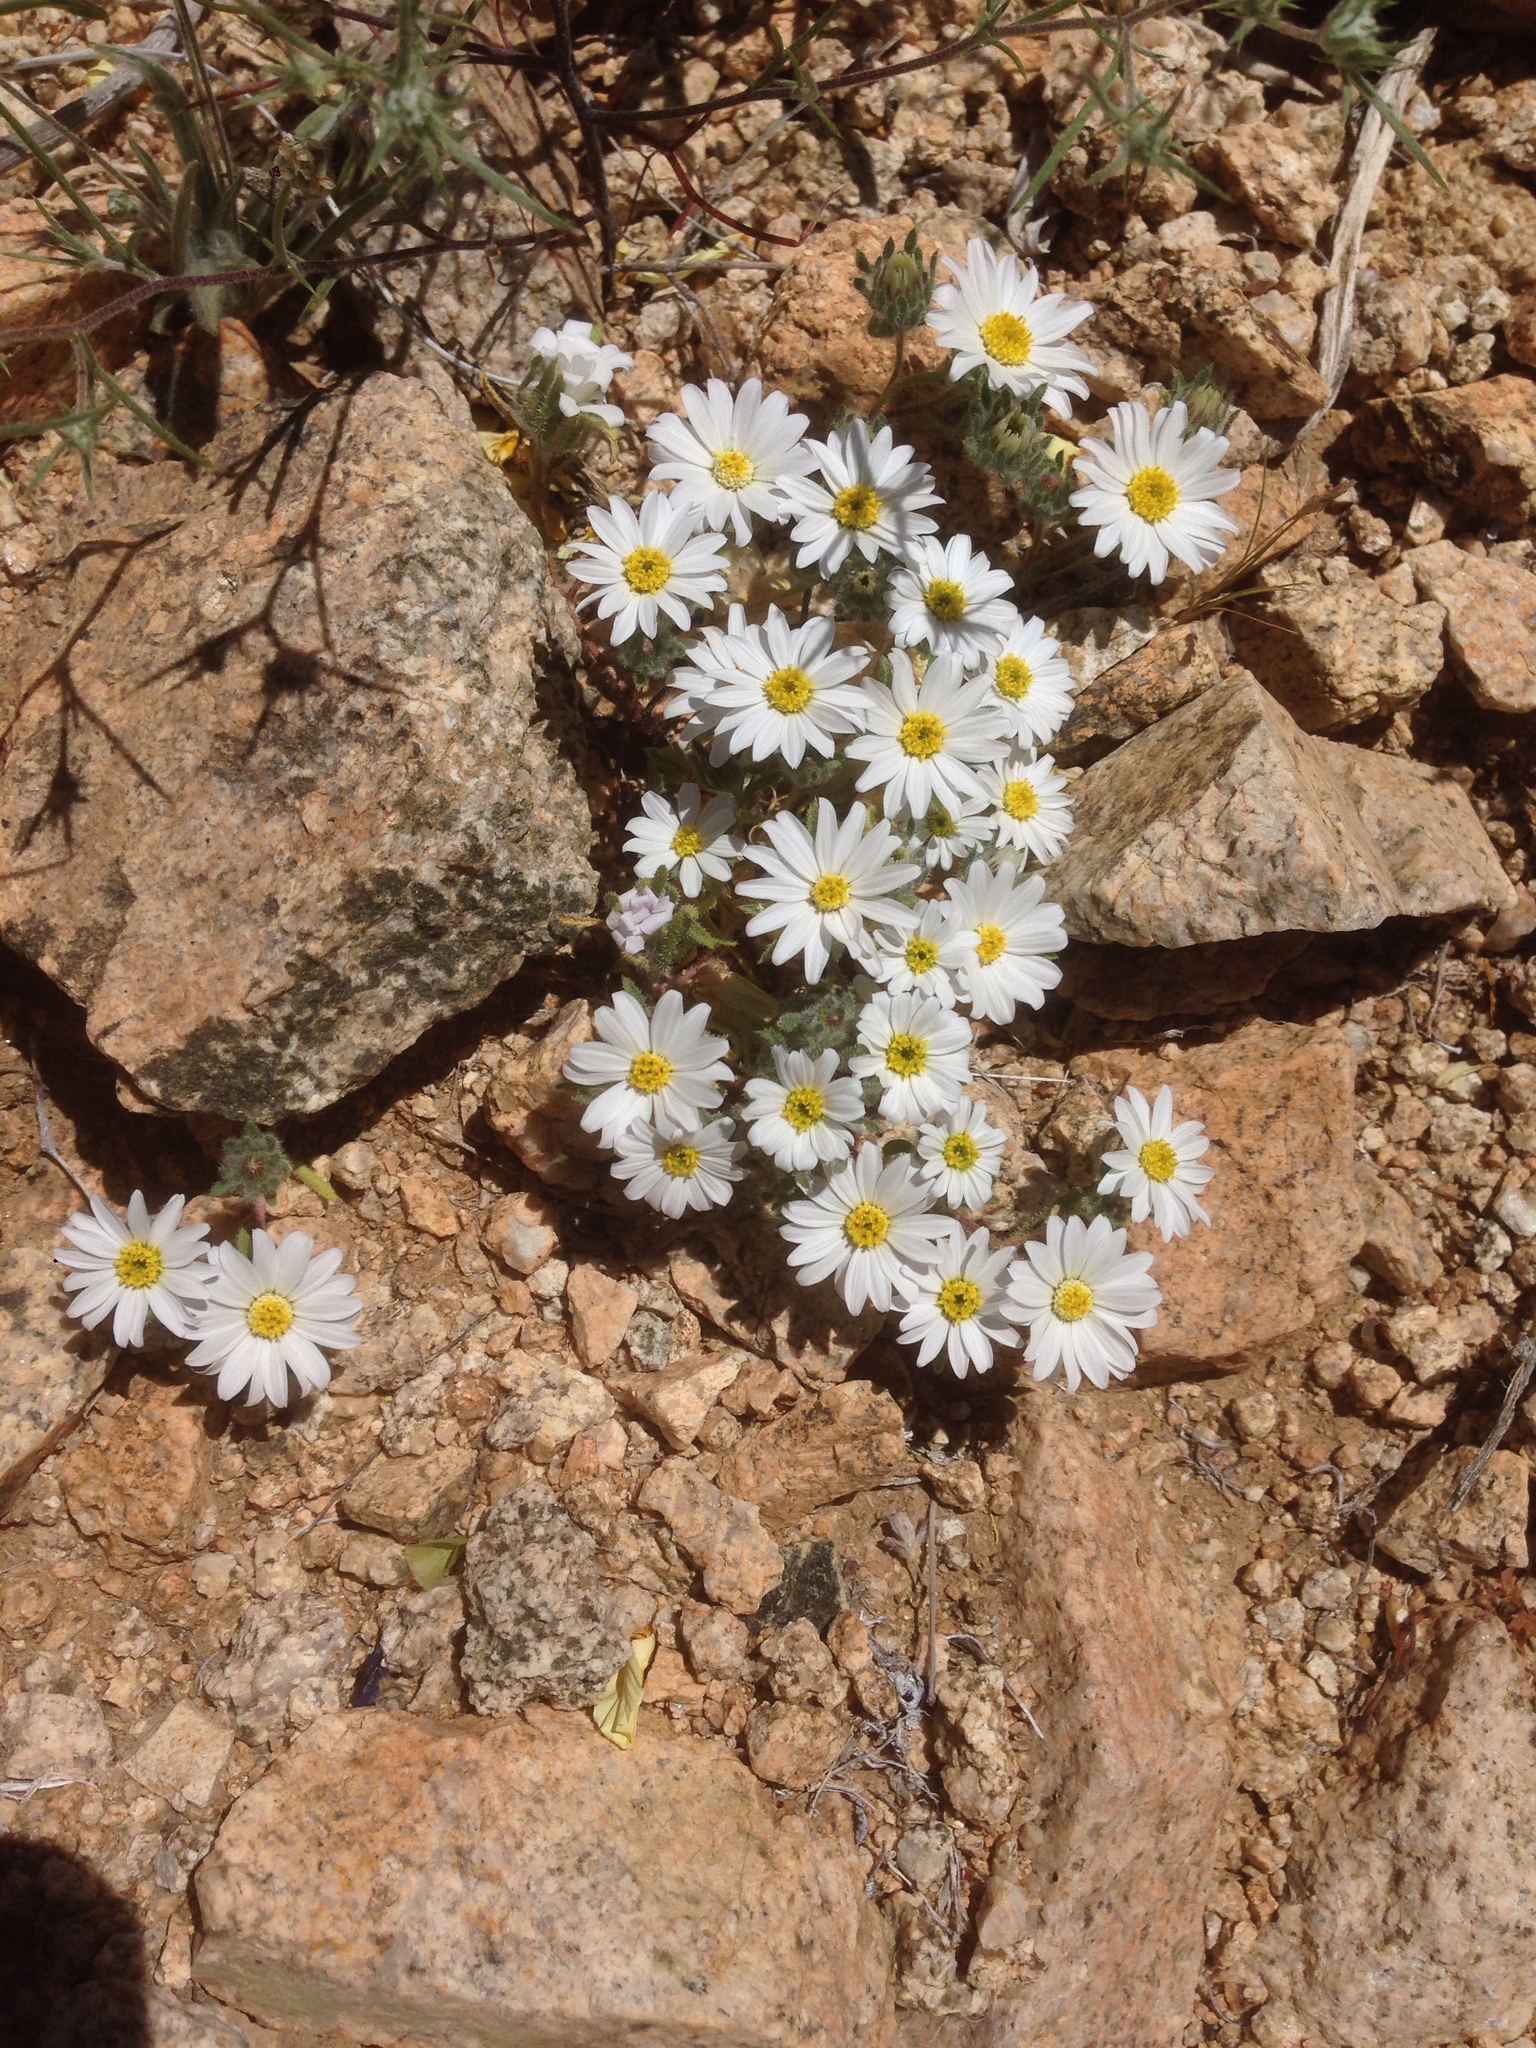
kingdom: Plantae
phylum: Tracheophyta
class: Magnoliopsida
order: Asterales
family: Asteraceae
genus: Monoptilon
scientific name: Monoptilon bellioides
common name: Bristly desertstar
